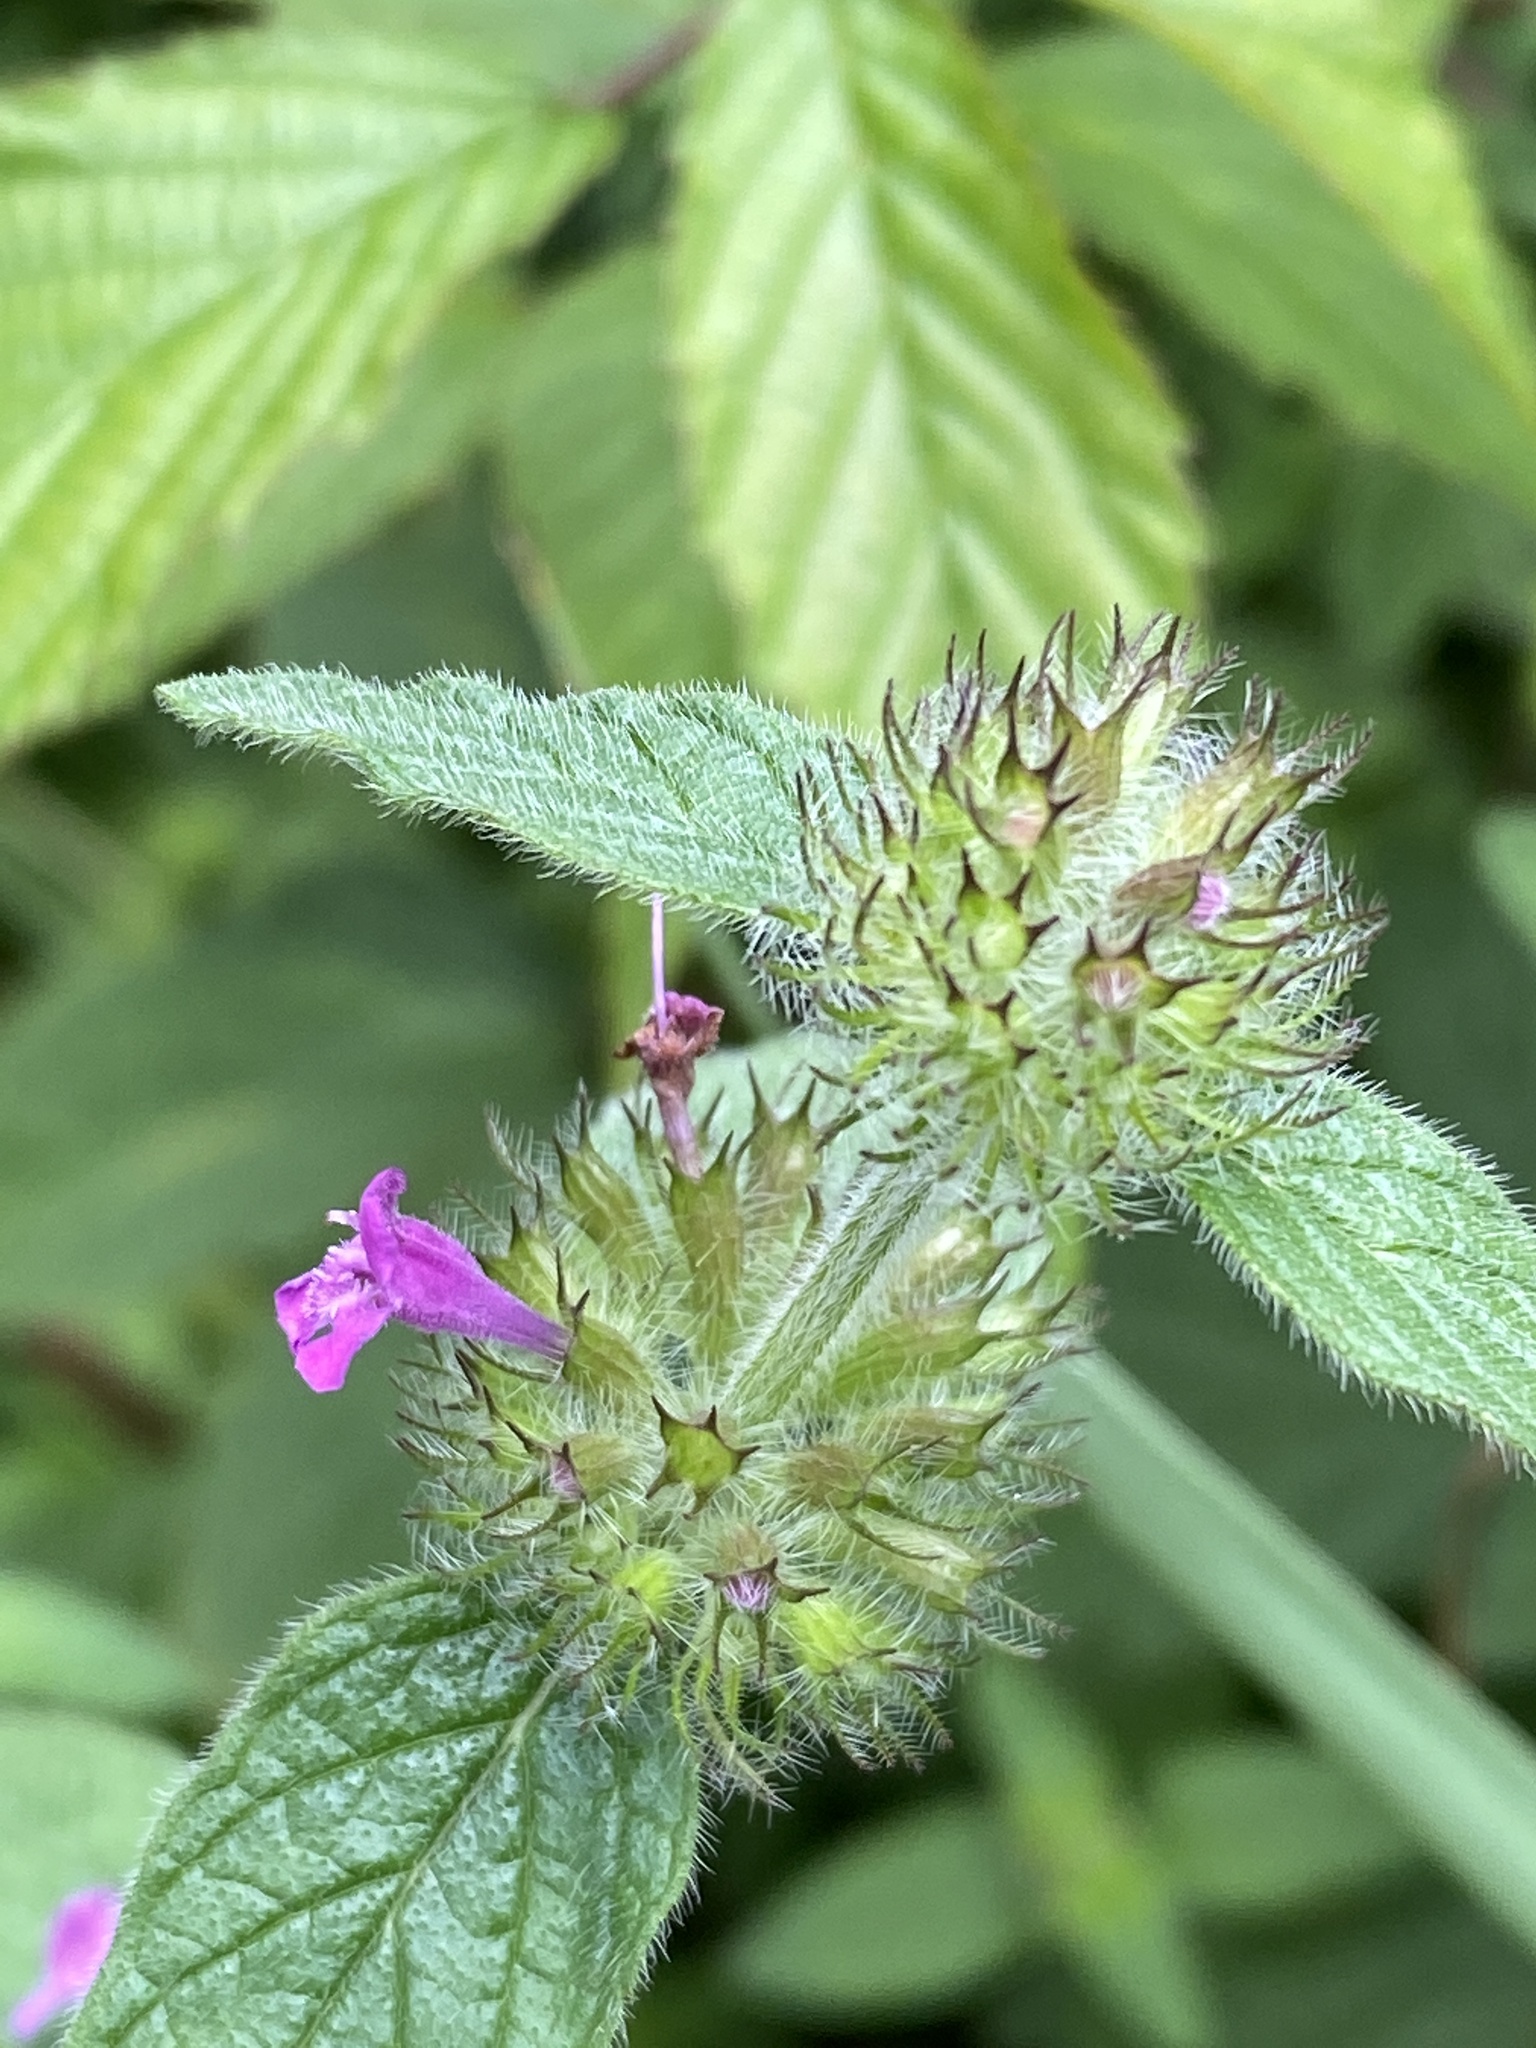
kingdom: Plantae
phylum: Tracheophyta
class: Magnoliopsida
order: Lamiales
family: Lamiaceae
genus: Clinopodium
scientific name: Clinopodium vulgare
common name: Wild basil
